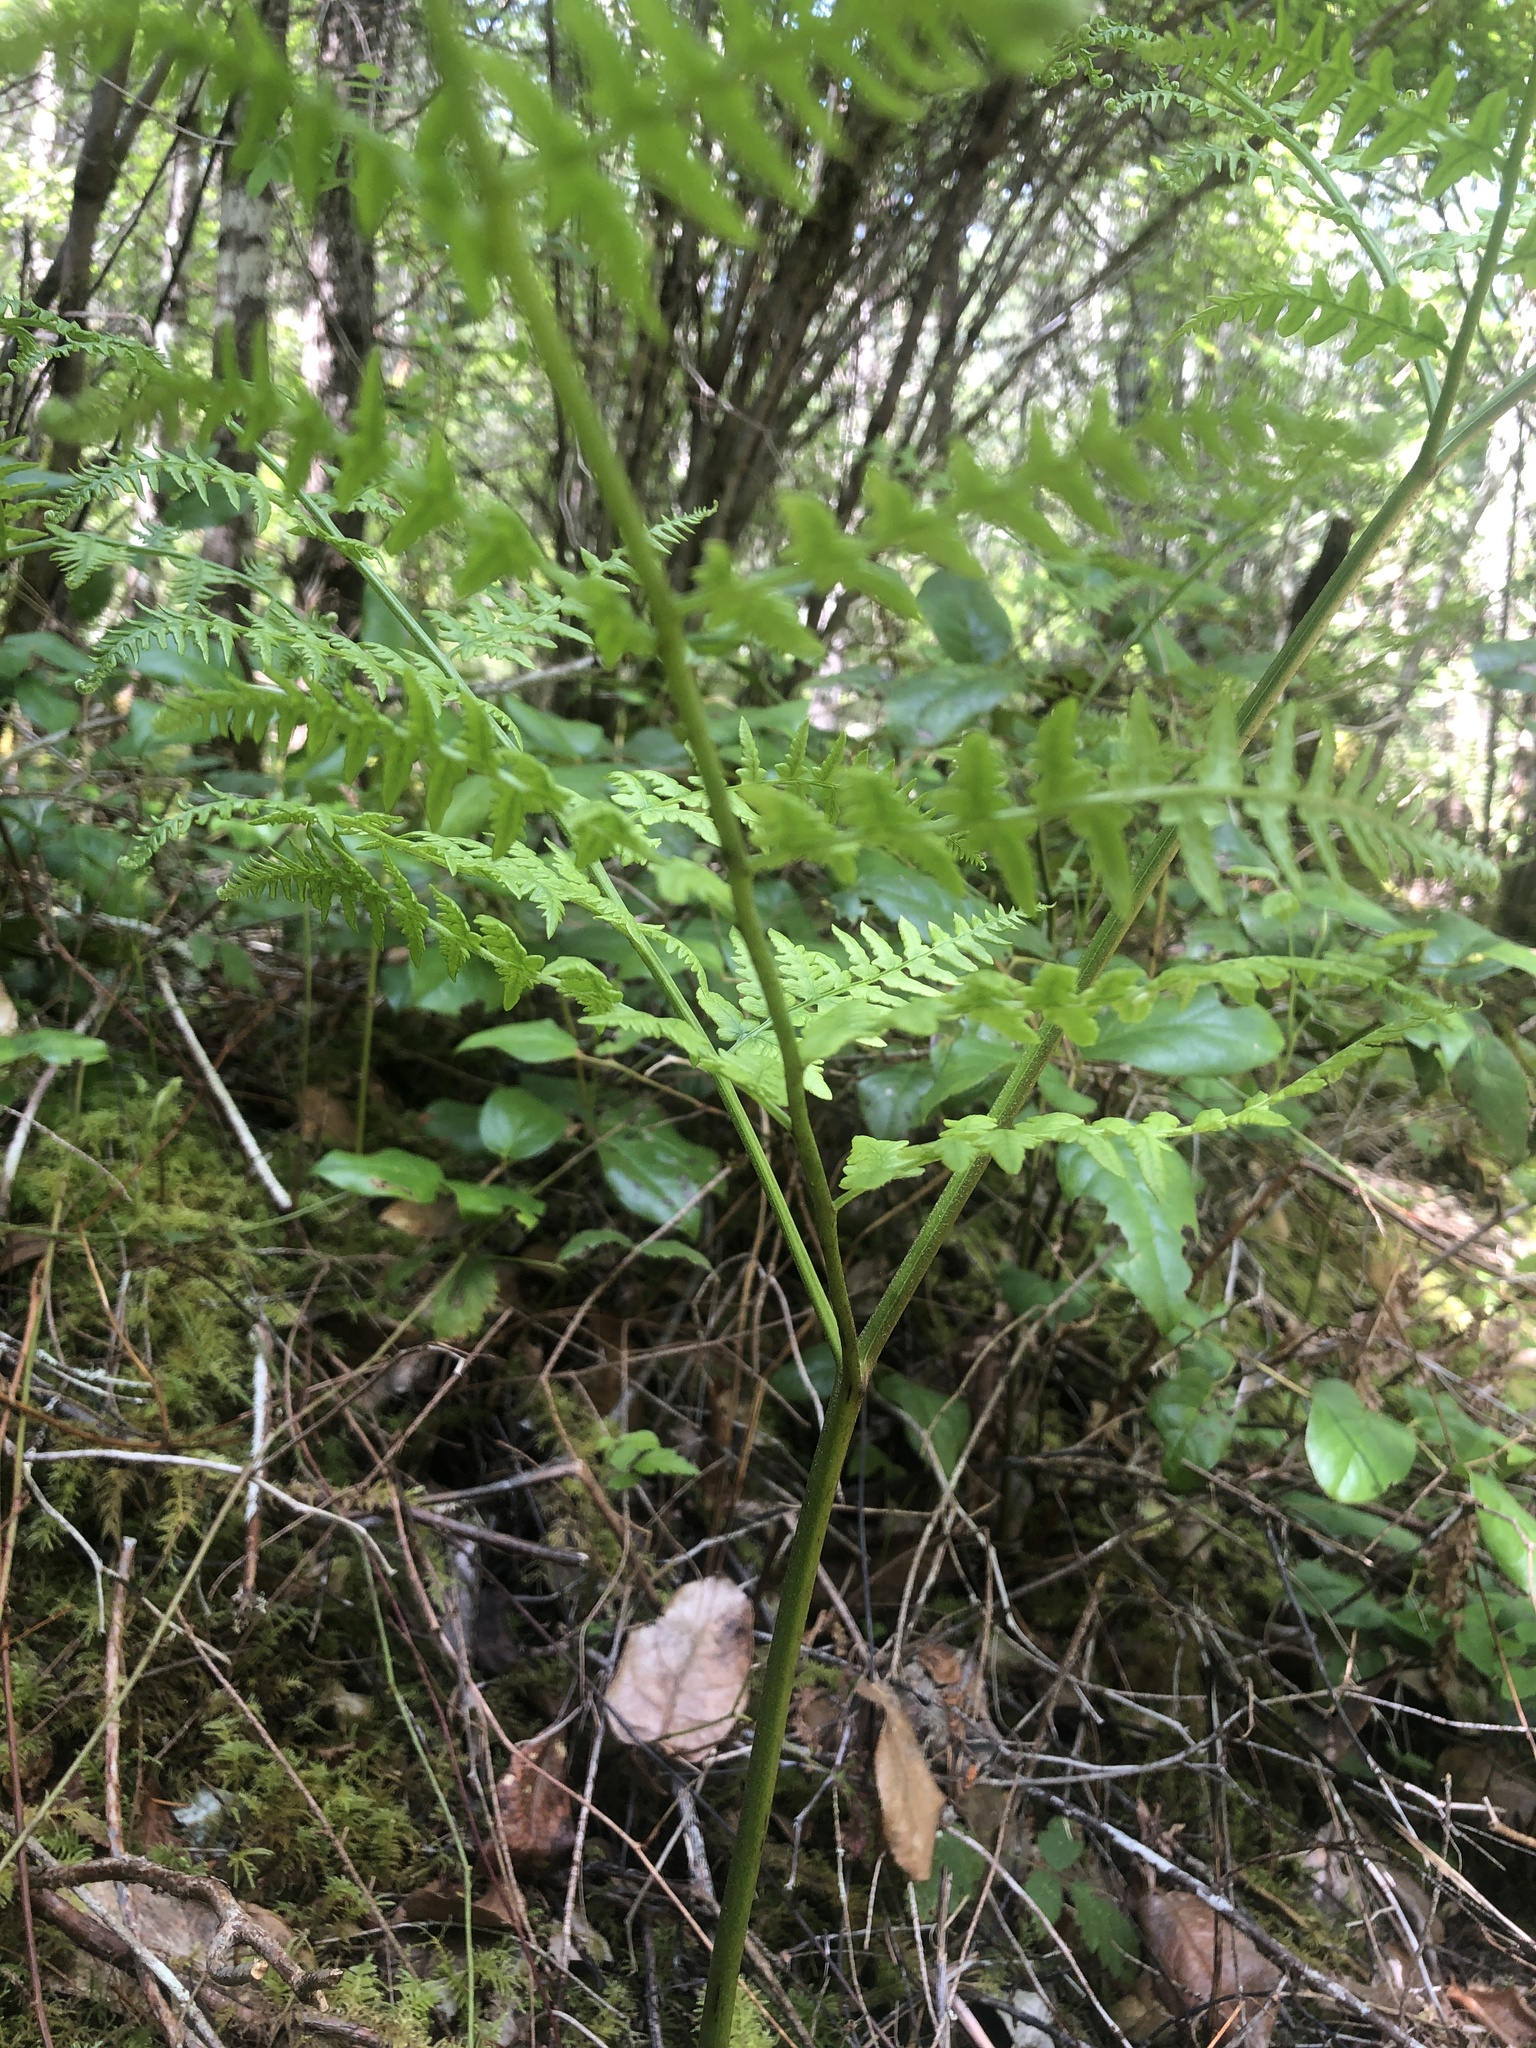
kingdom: Plantae
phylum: Tracheophyta
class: Polypodiopsida
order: Polypodiales
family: Dennstaedtiaceae
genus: Pteridium
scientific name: Pteridium aquilinum
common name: Bracken
